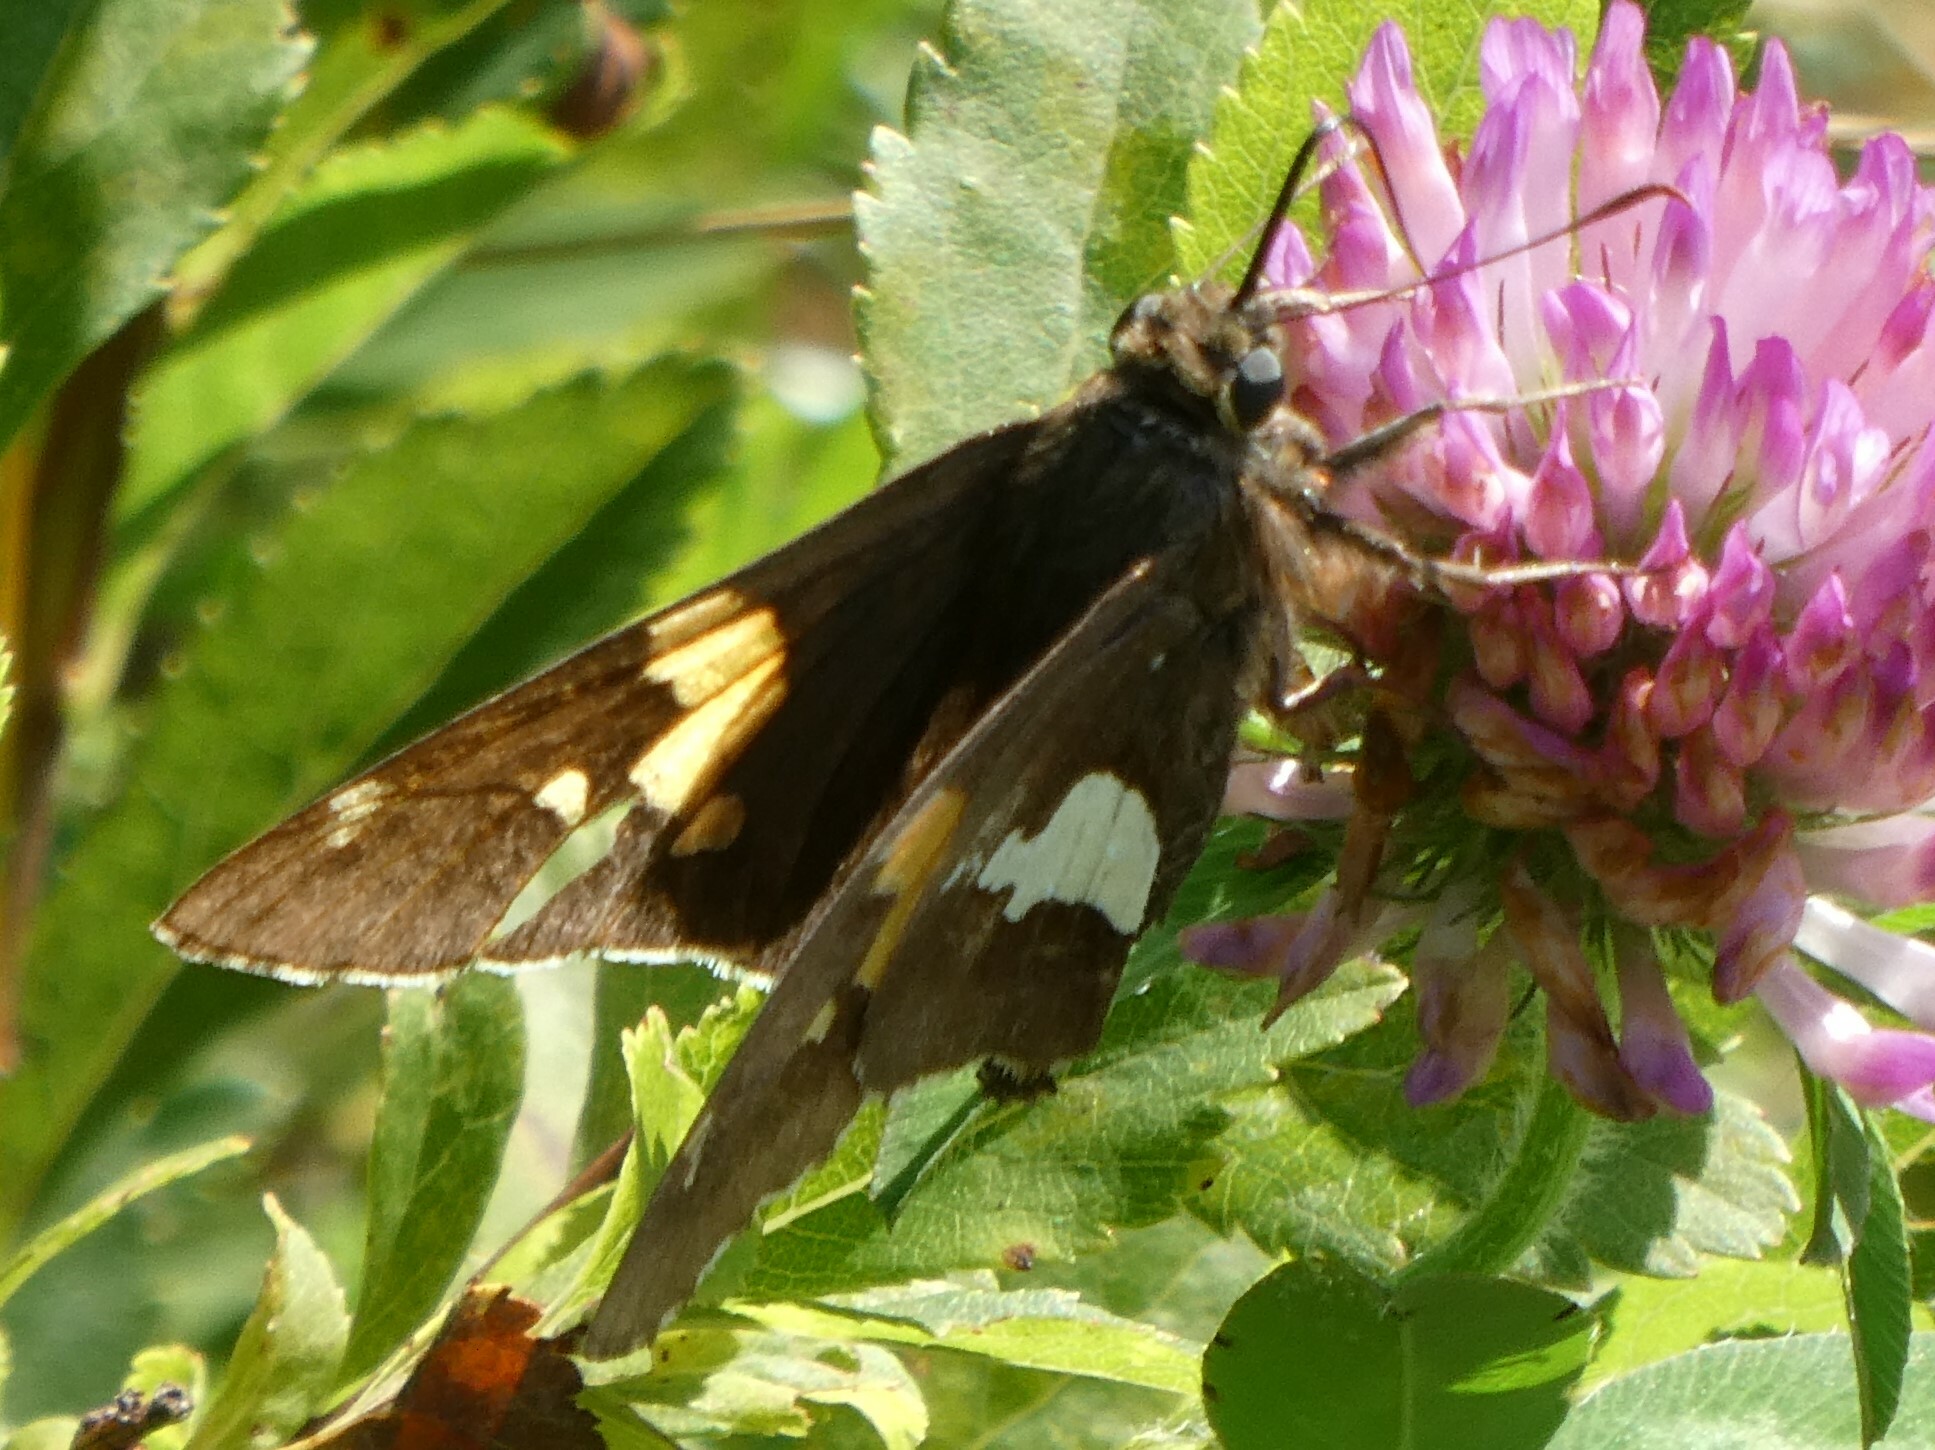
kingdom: Animalia
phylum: Arthropoda
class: Insecta
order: Lepidoptera
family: Hesperiidae
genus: Epargyreus
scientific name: Epargyreus clarus
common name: Silver-spotted skipper
